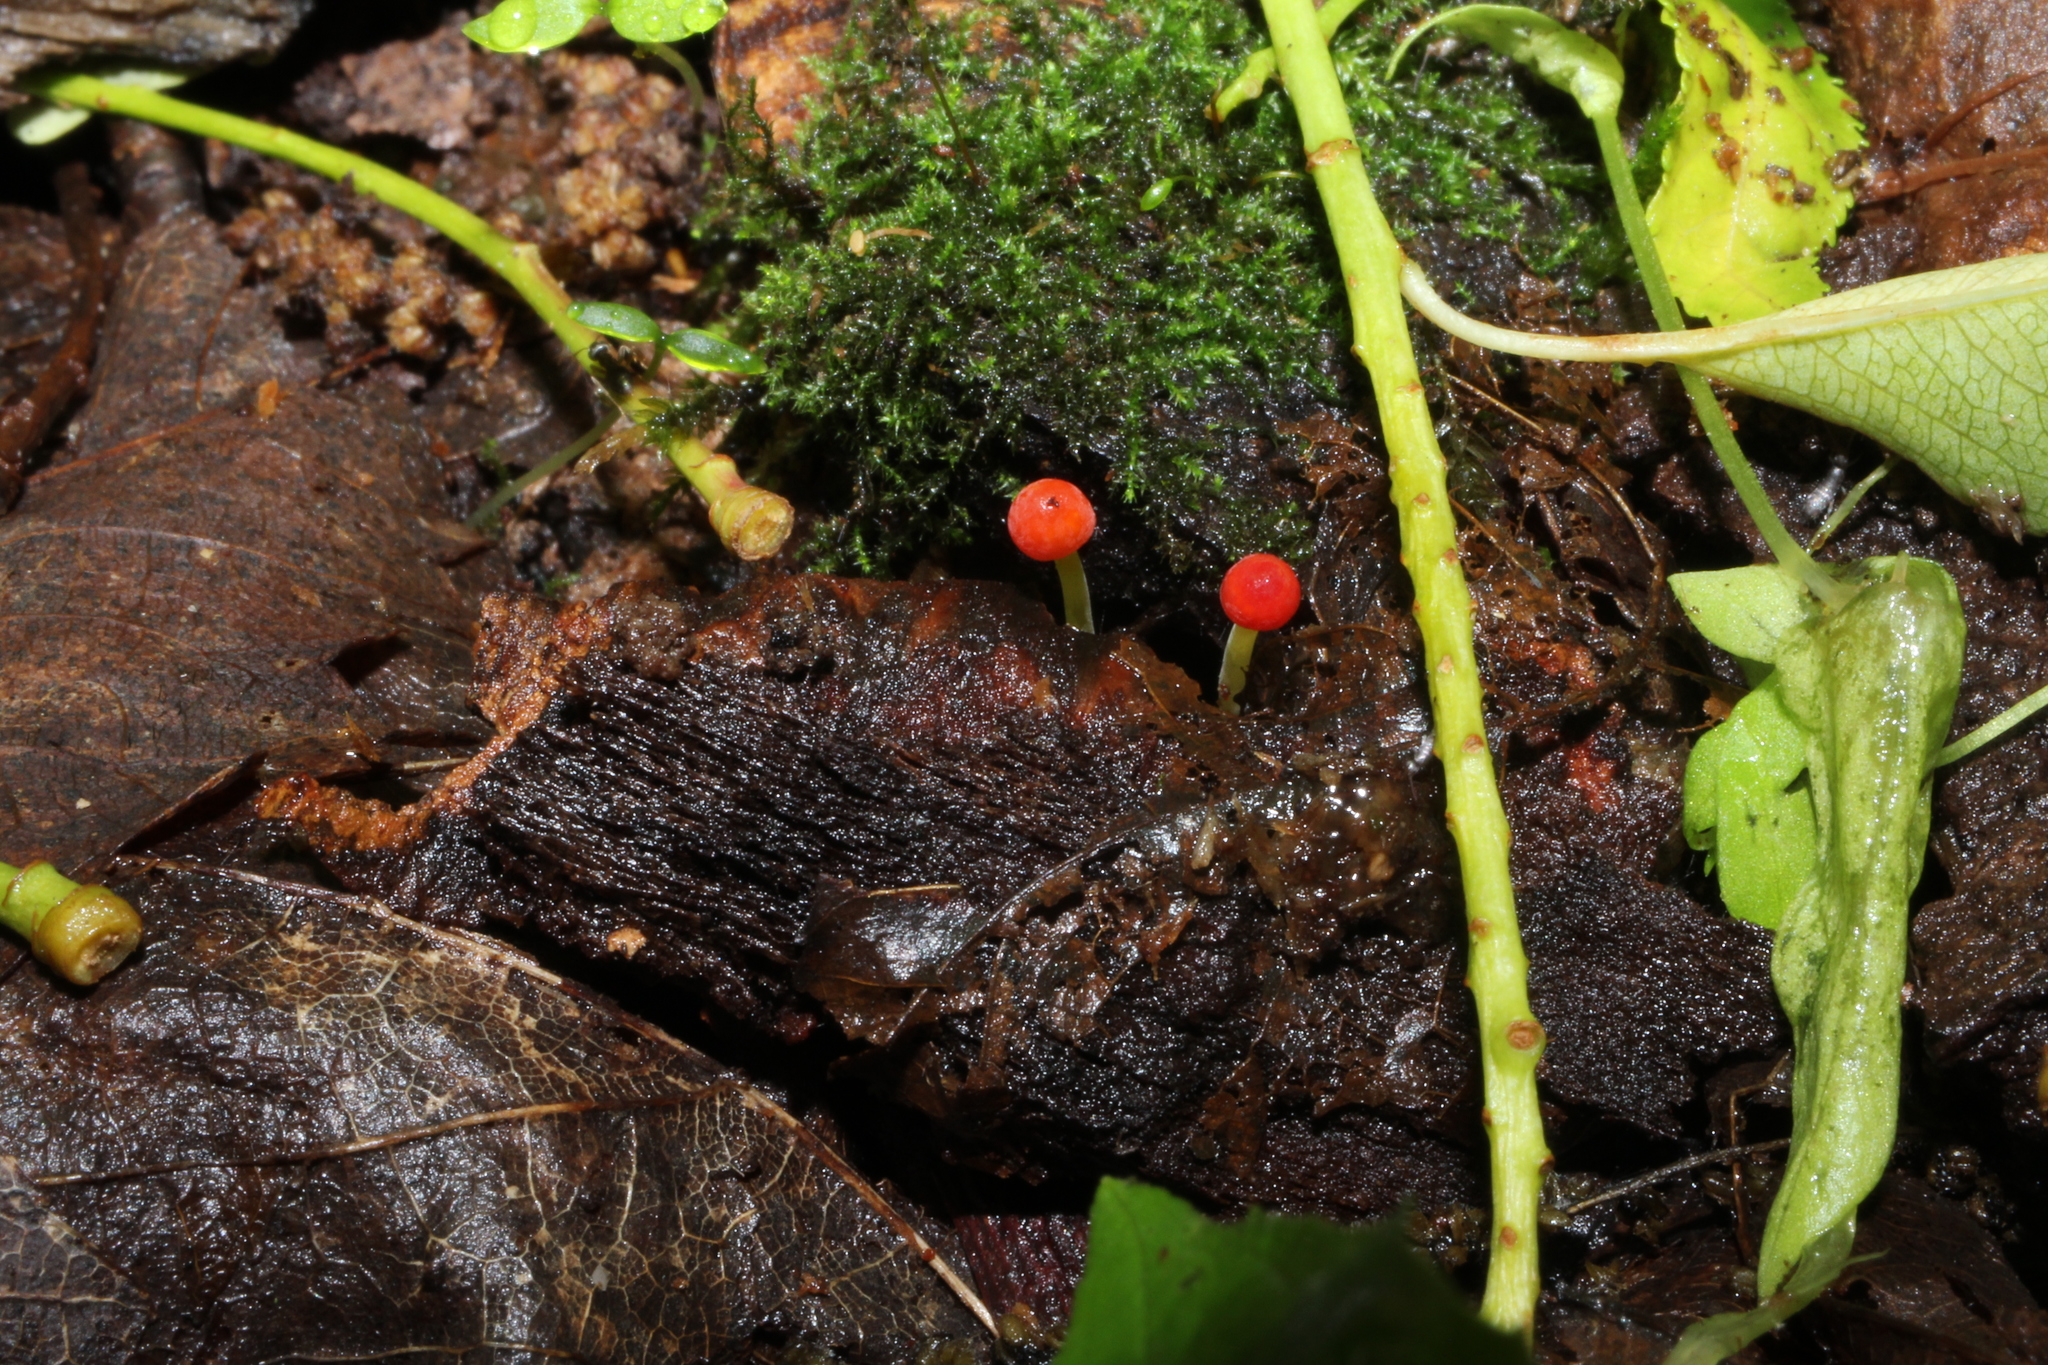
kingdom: Fungi
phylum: Basidiomycota
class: Agaricomycetes
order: Agaricales
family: Mycenaceae
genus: Mycena
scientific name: Mycena acicula
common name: Orange bonnet
